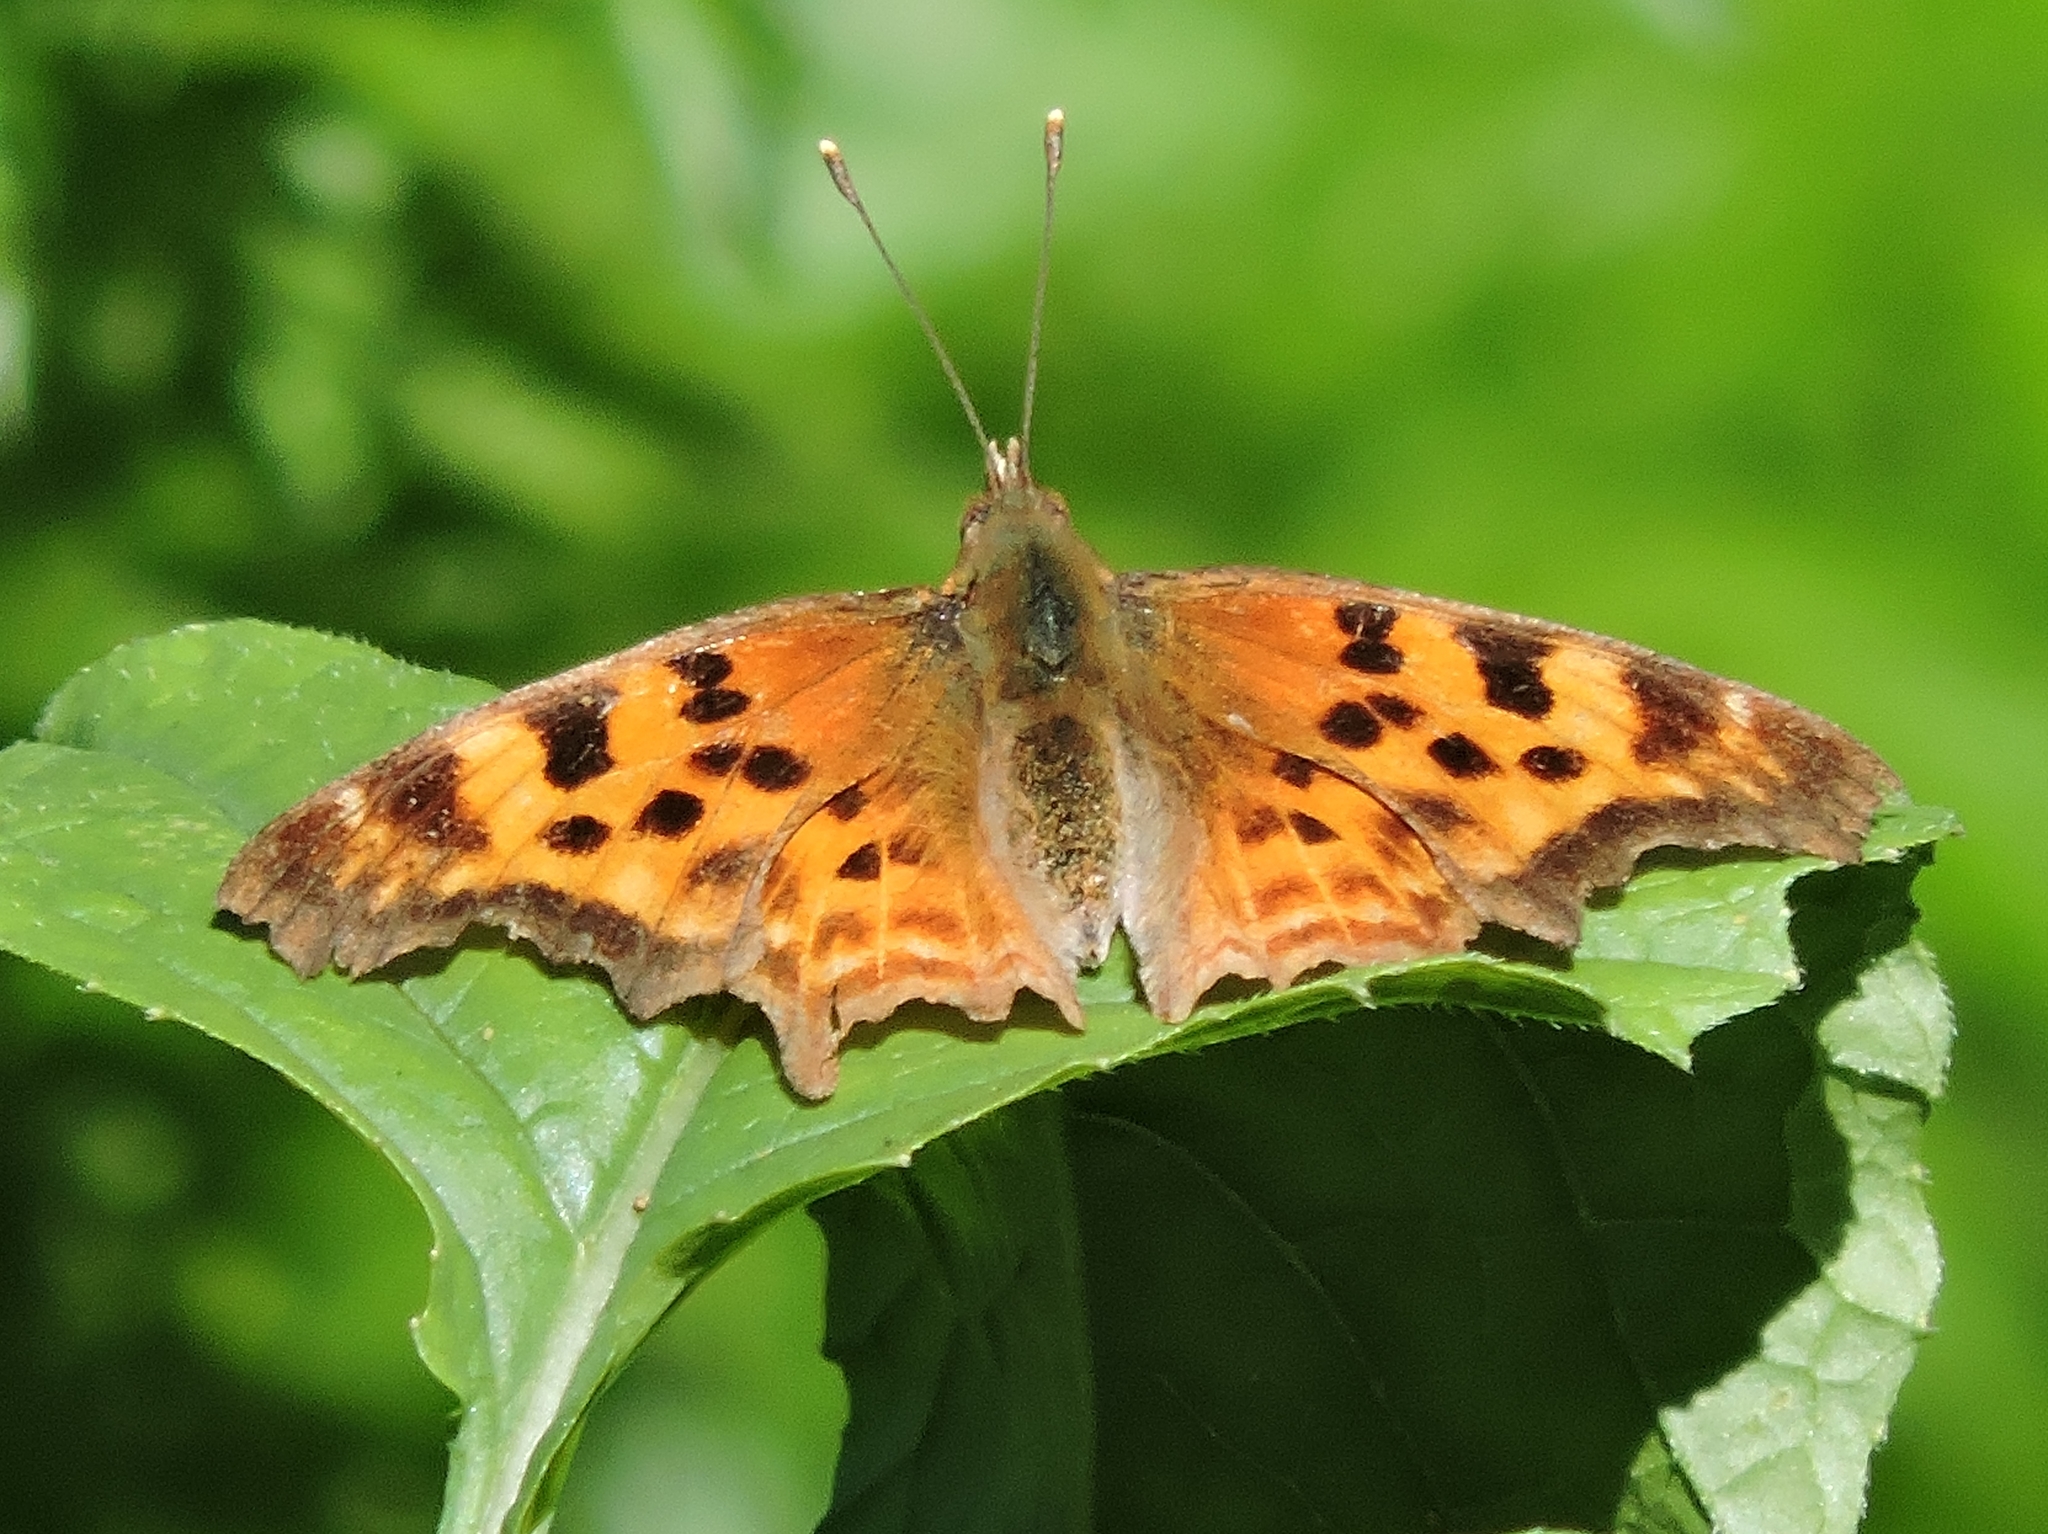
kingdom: Animalia
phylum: Arthropoda
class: Insecta
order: Lepidoptera
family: Nymphalidae
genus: Polygonia
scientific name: Polygonia satyrus
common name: Satyr angle wing
